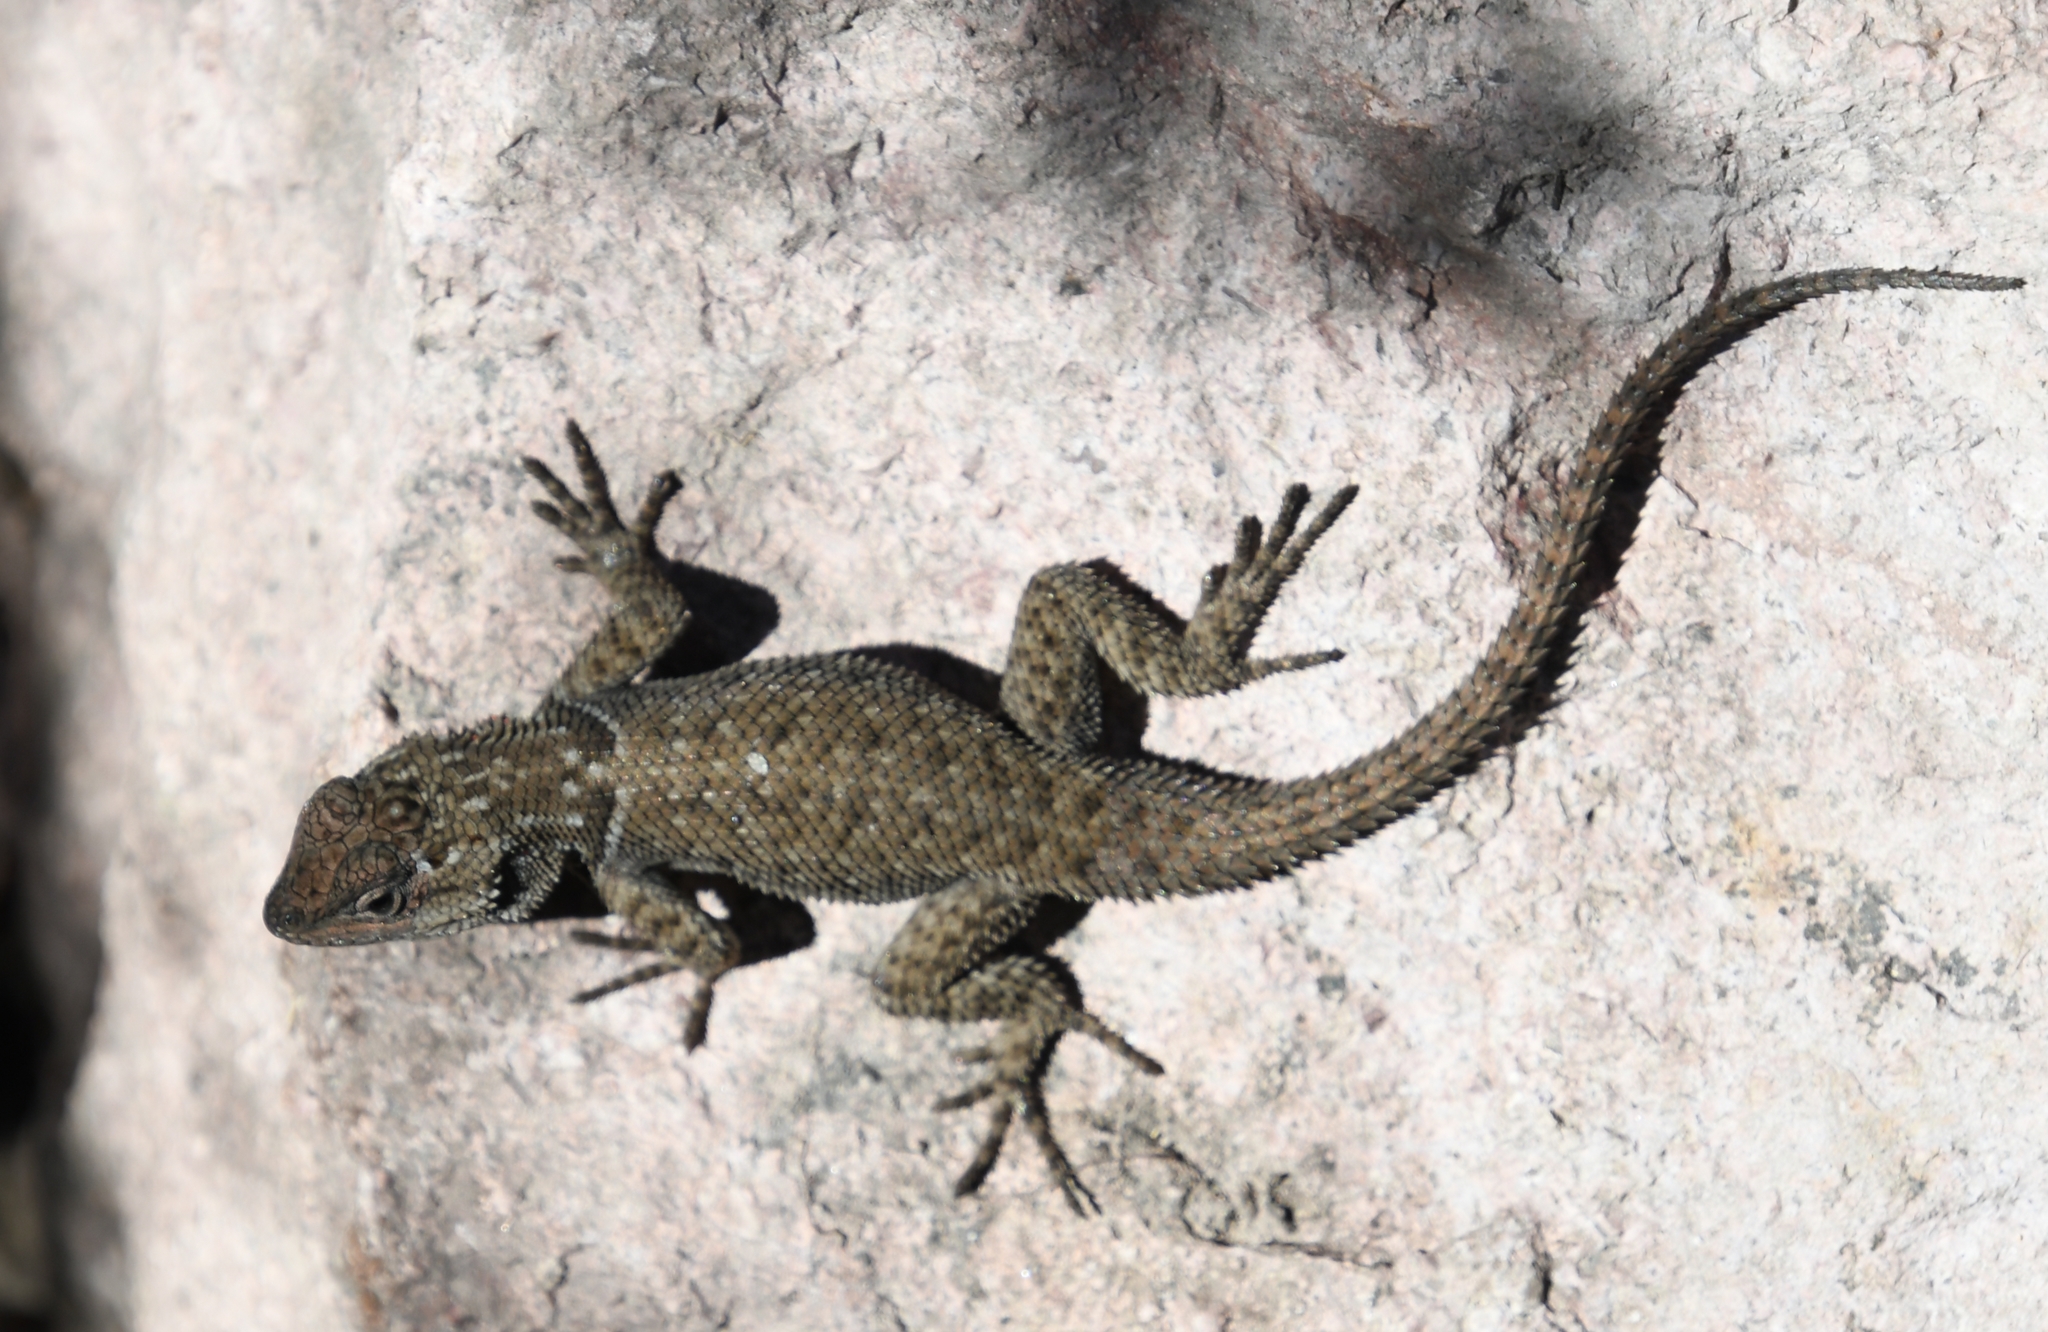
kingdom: Animalia
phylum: Chordata
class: Squamata
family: Phrynosomatidae
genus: Sceloporus
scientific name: Sceloporus jarrovii
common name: Yarrow's spiny lizard
